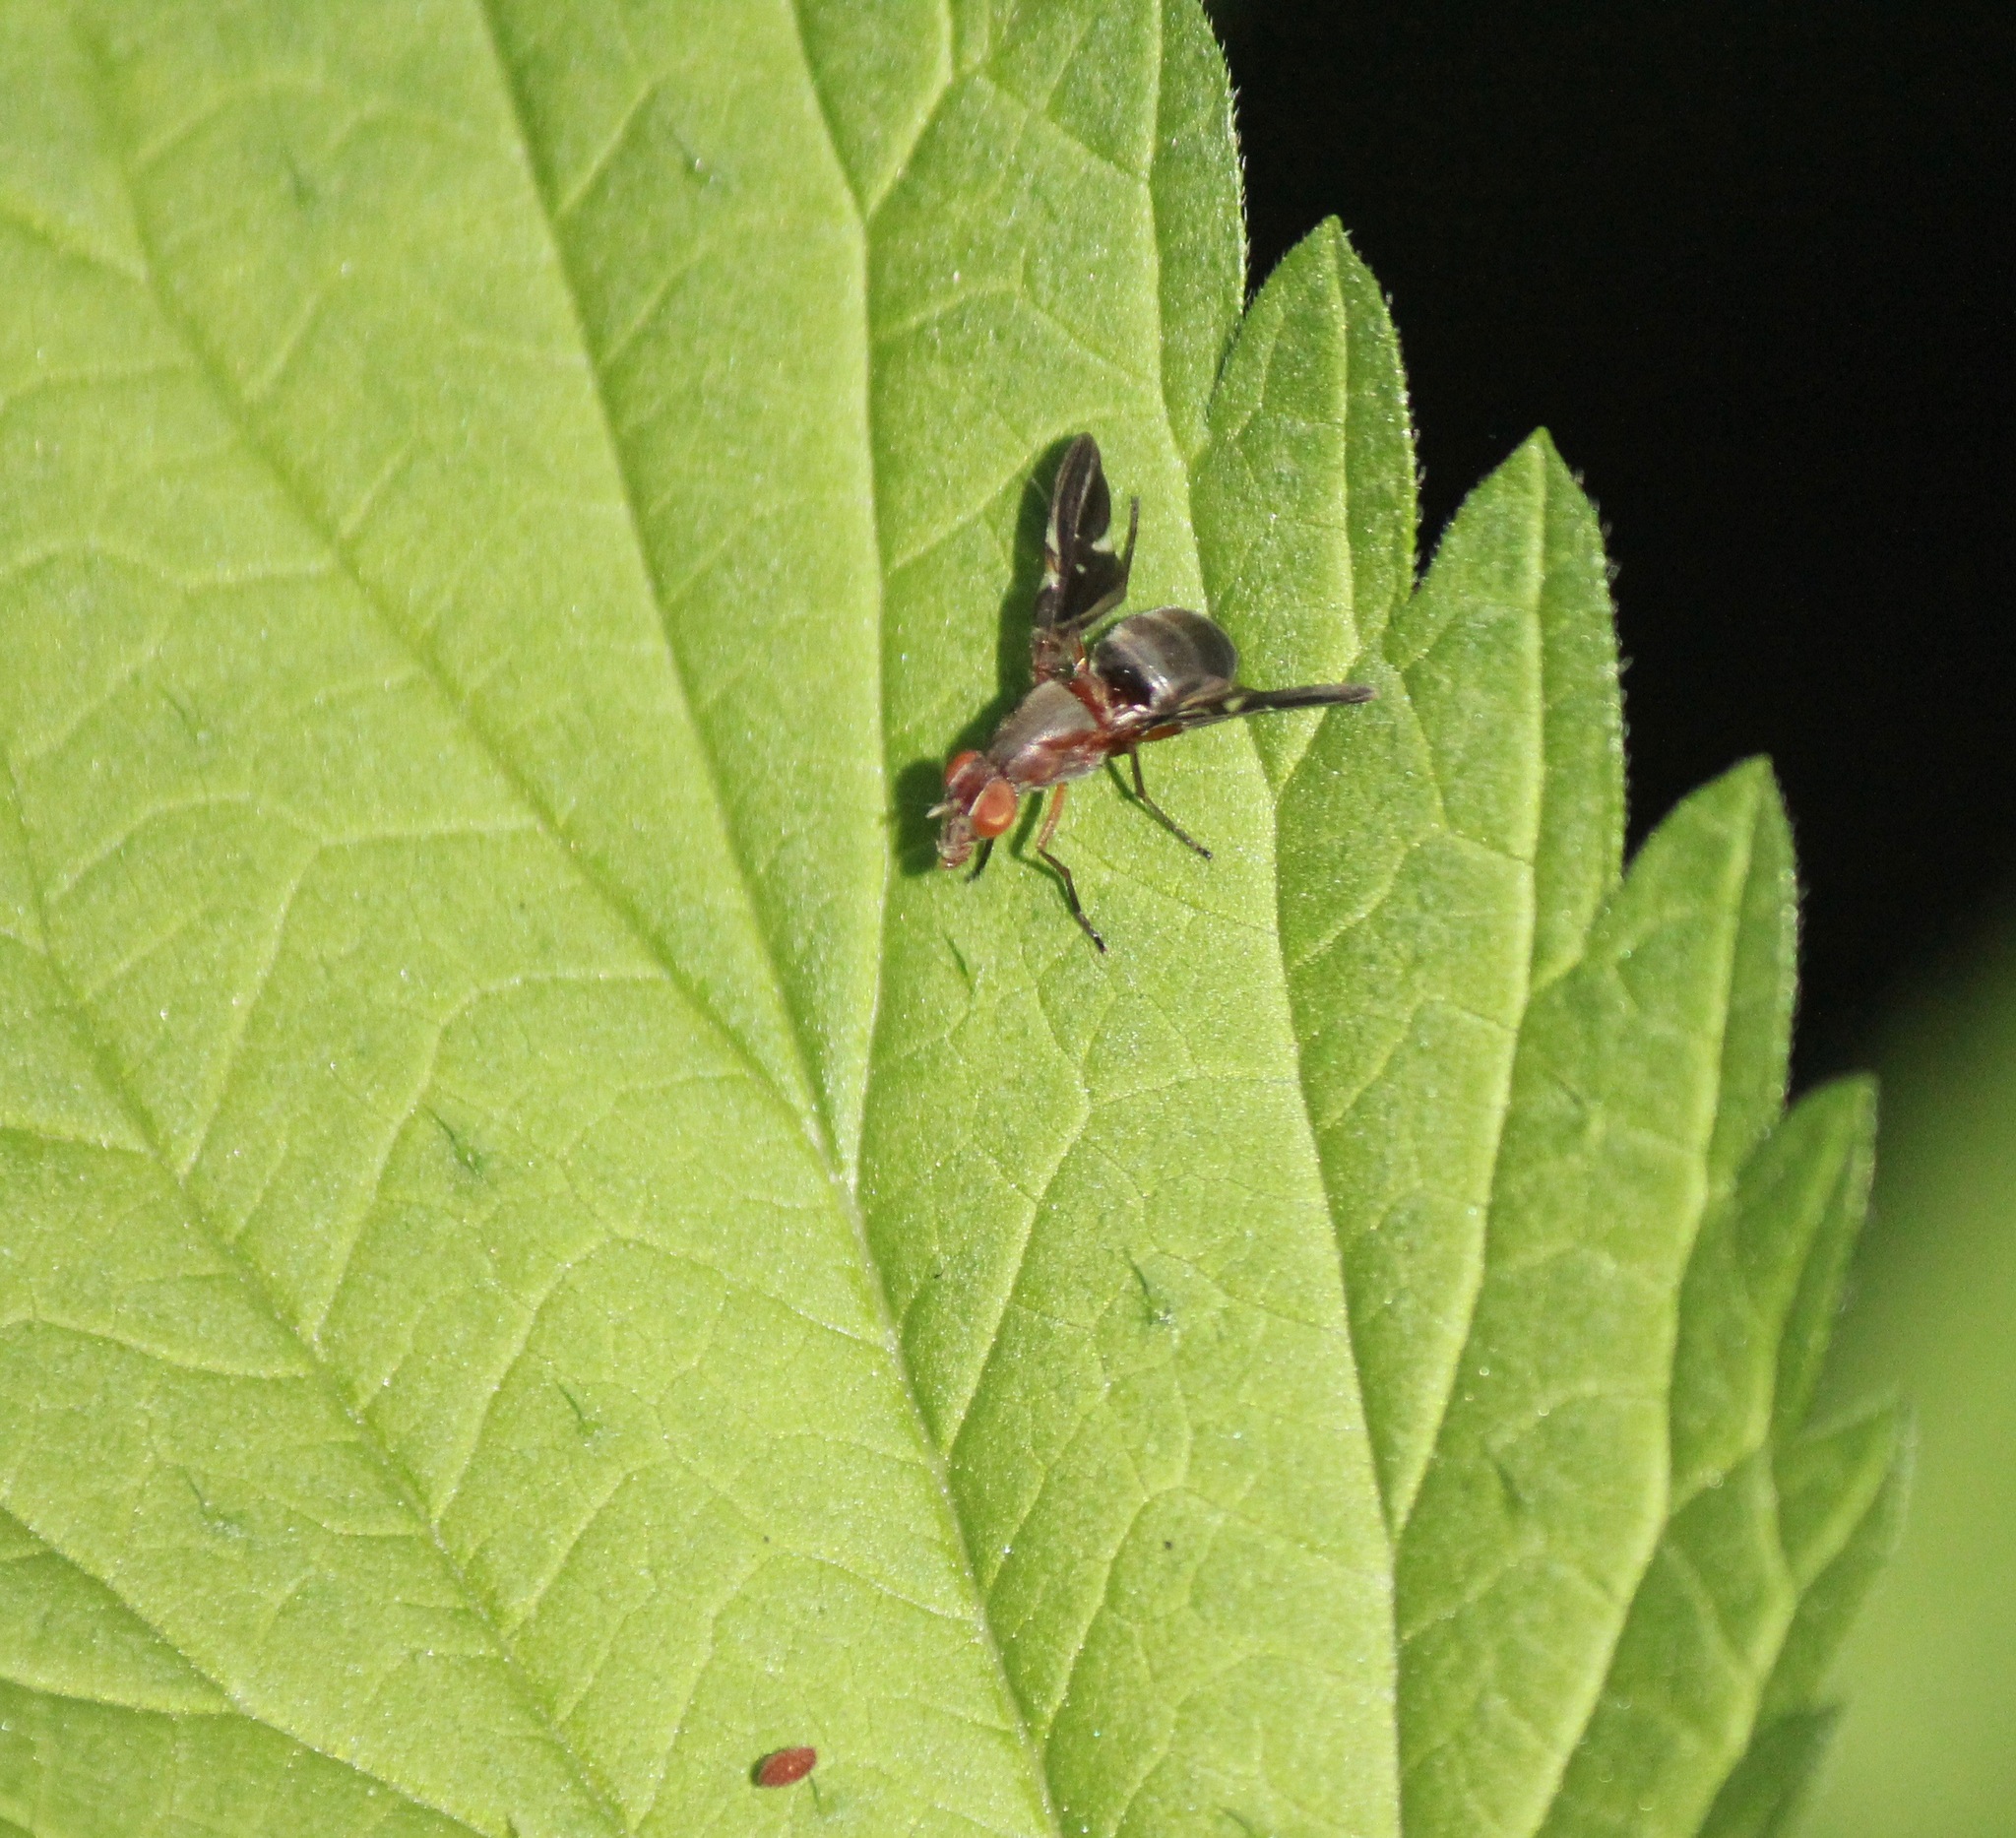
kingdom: Animalia
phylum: Arthropoda
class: Insecta
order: Diptera
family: Ulidiidae
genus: Delphinia
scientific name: Delphinia picta
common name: Common picture-winged fly
